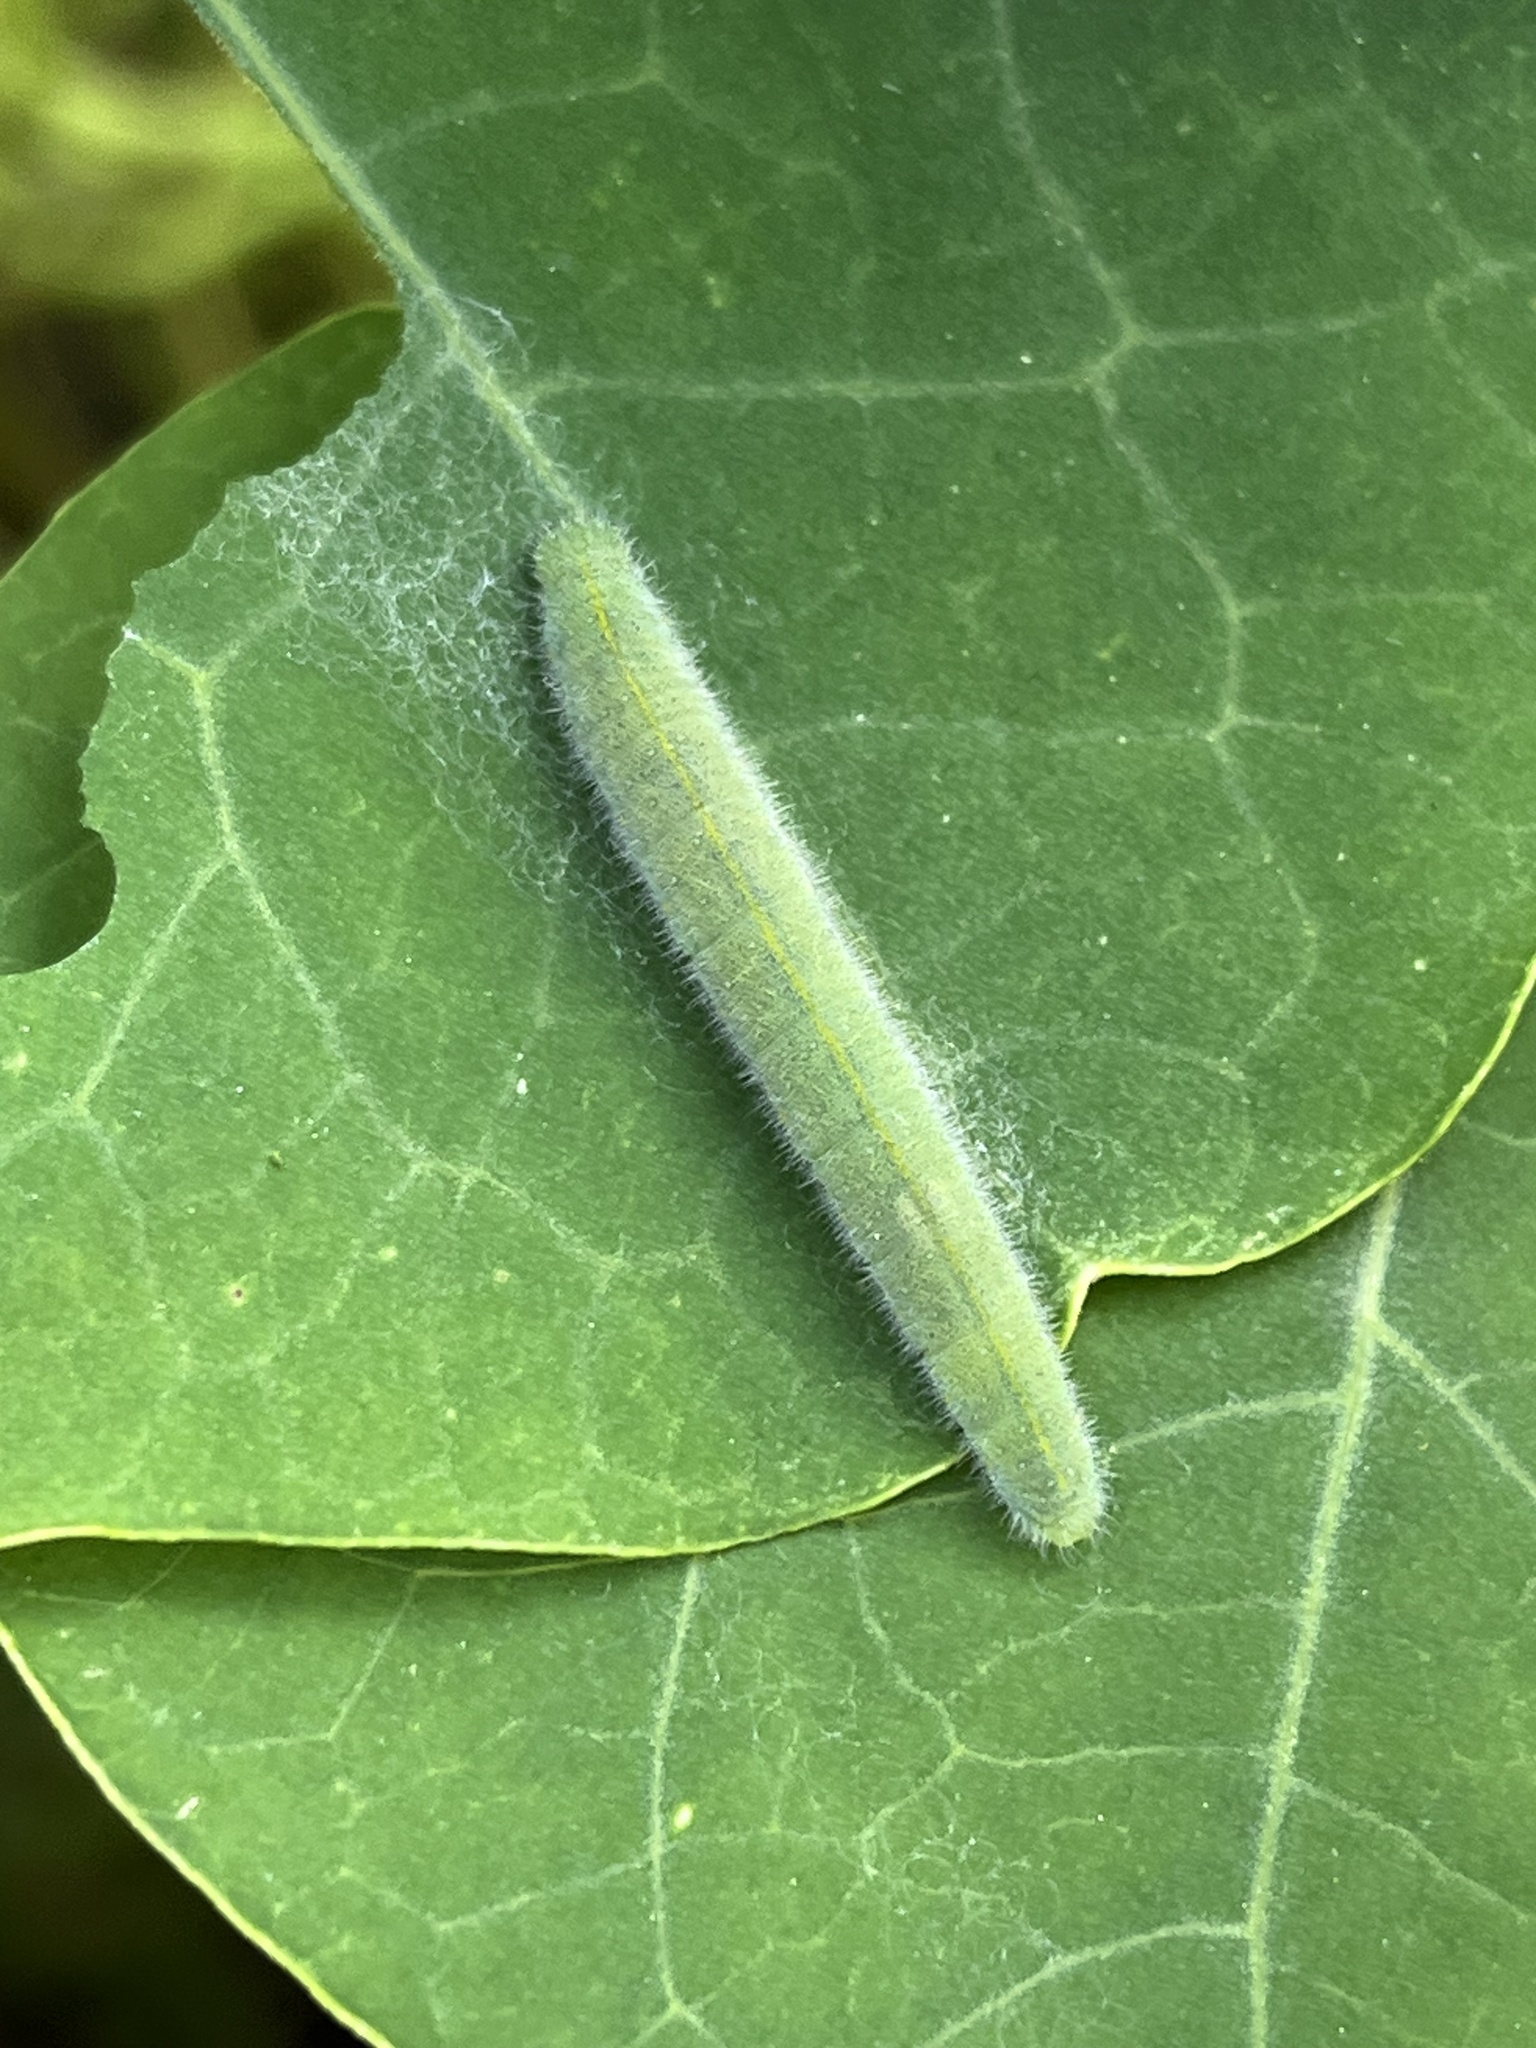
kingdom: Animalia
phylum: Arthropoda
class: Insecta
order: Lepidoptera
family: Pieridae
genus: Pieris
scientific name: Pieris rapae
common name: Small white
